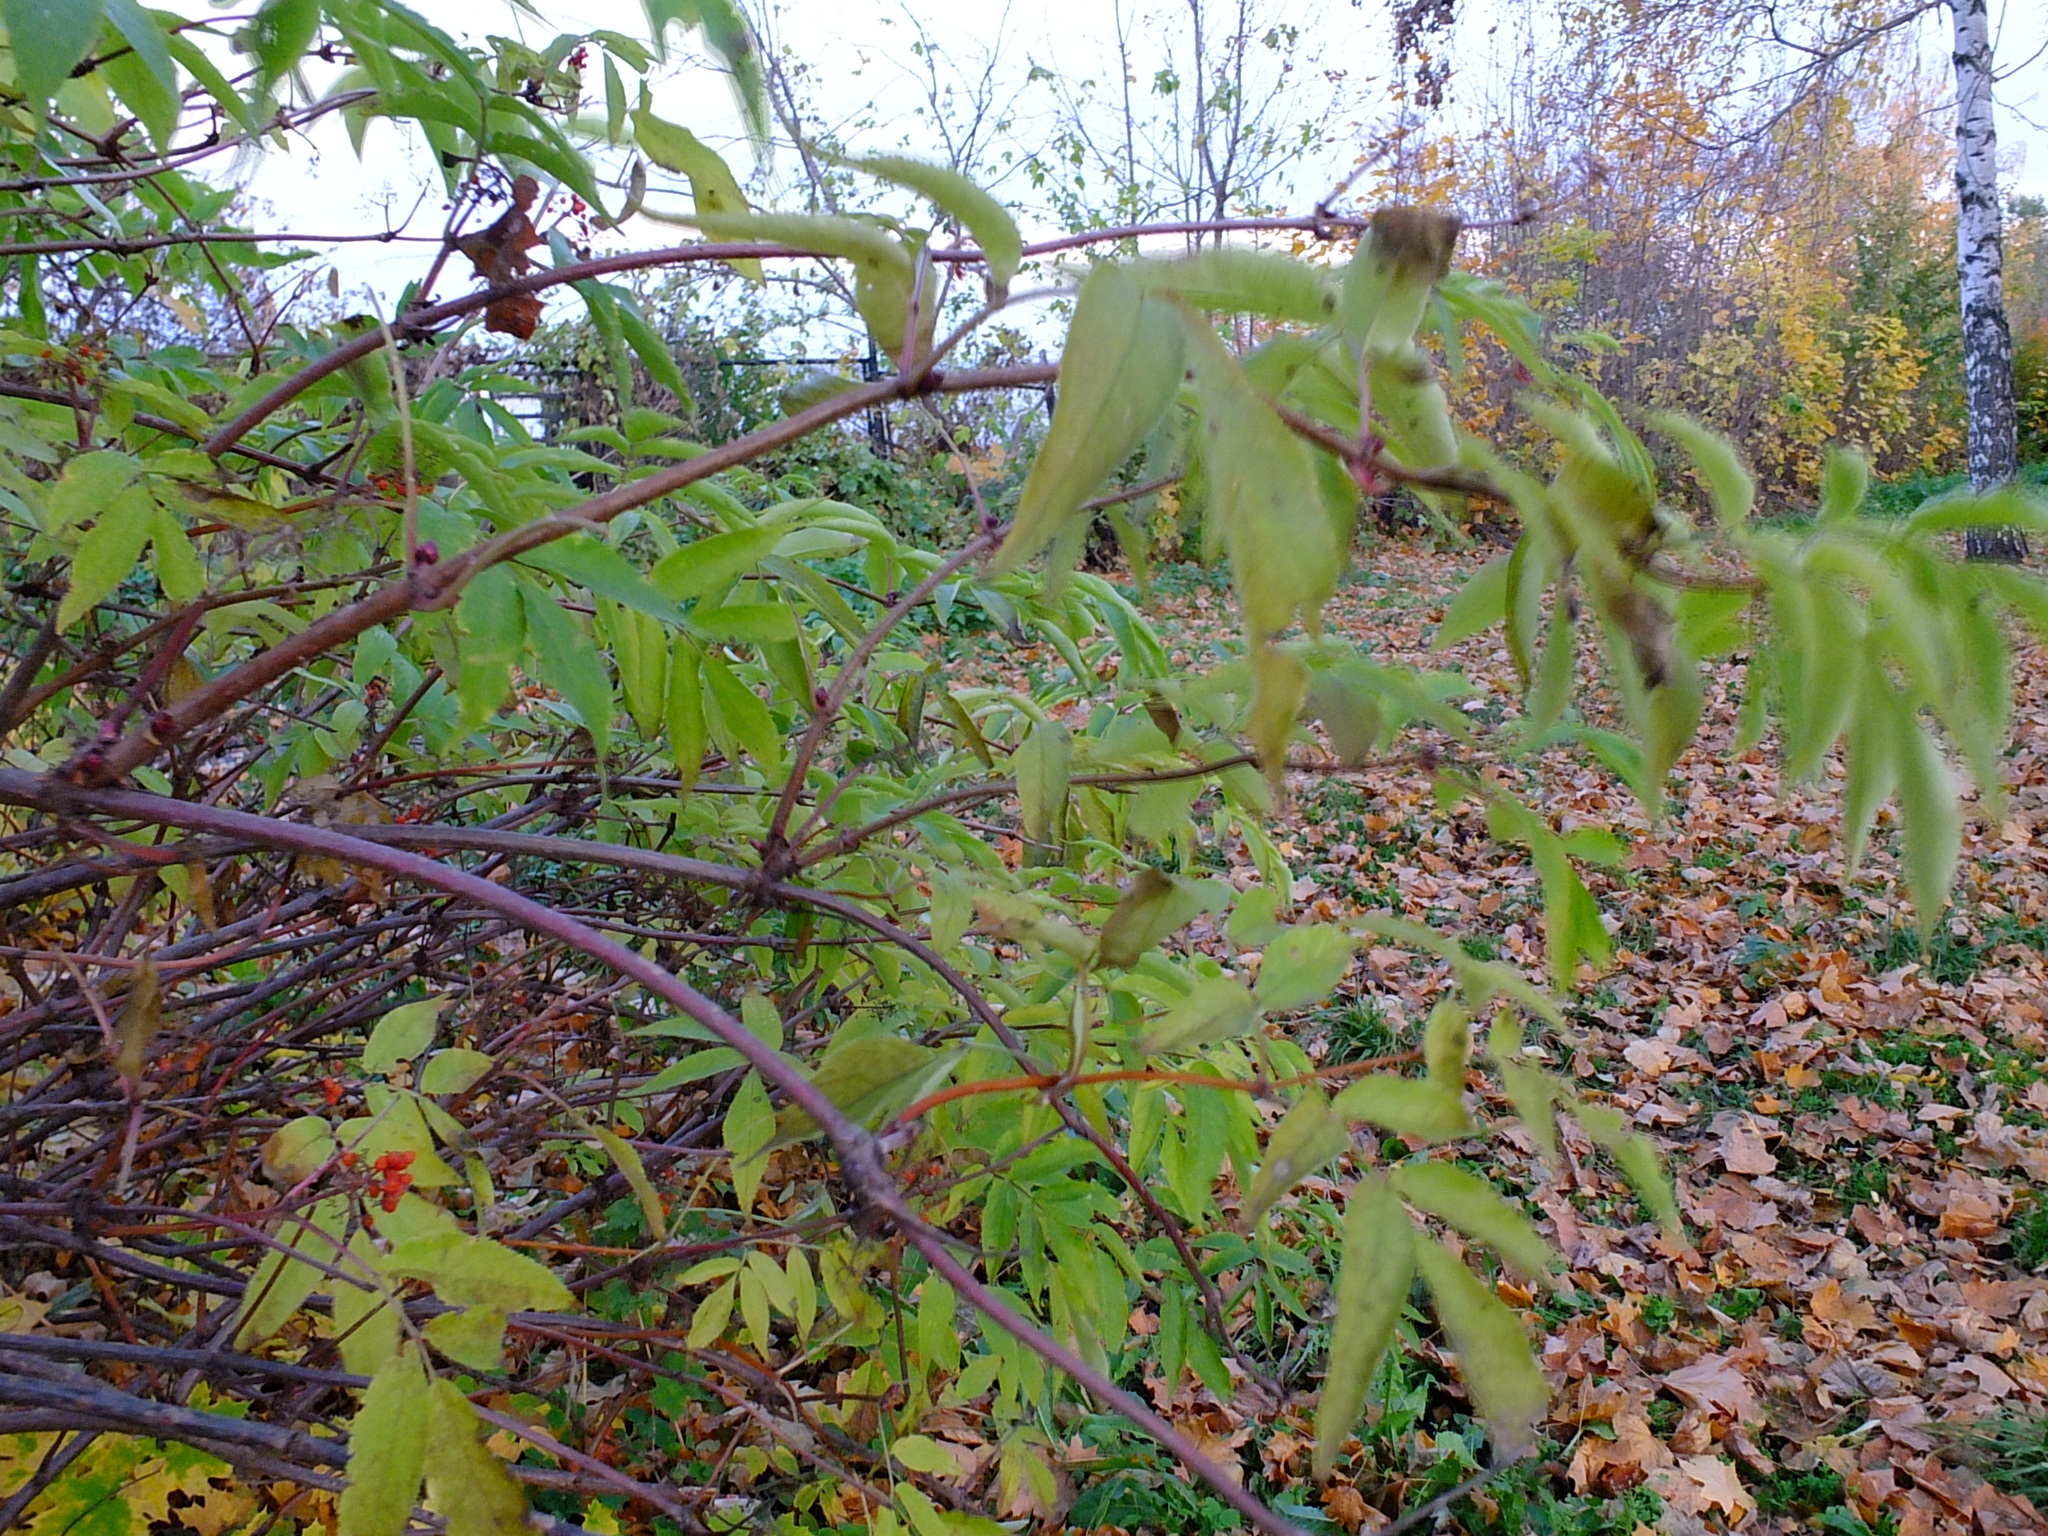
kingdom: Plantae
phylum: Tracheophyta
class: Magnoliopsida
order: Dipsacales
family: Viburnaceae
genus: Sambucus
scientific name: Sambucus racemosa
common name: Red-berried elder
